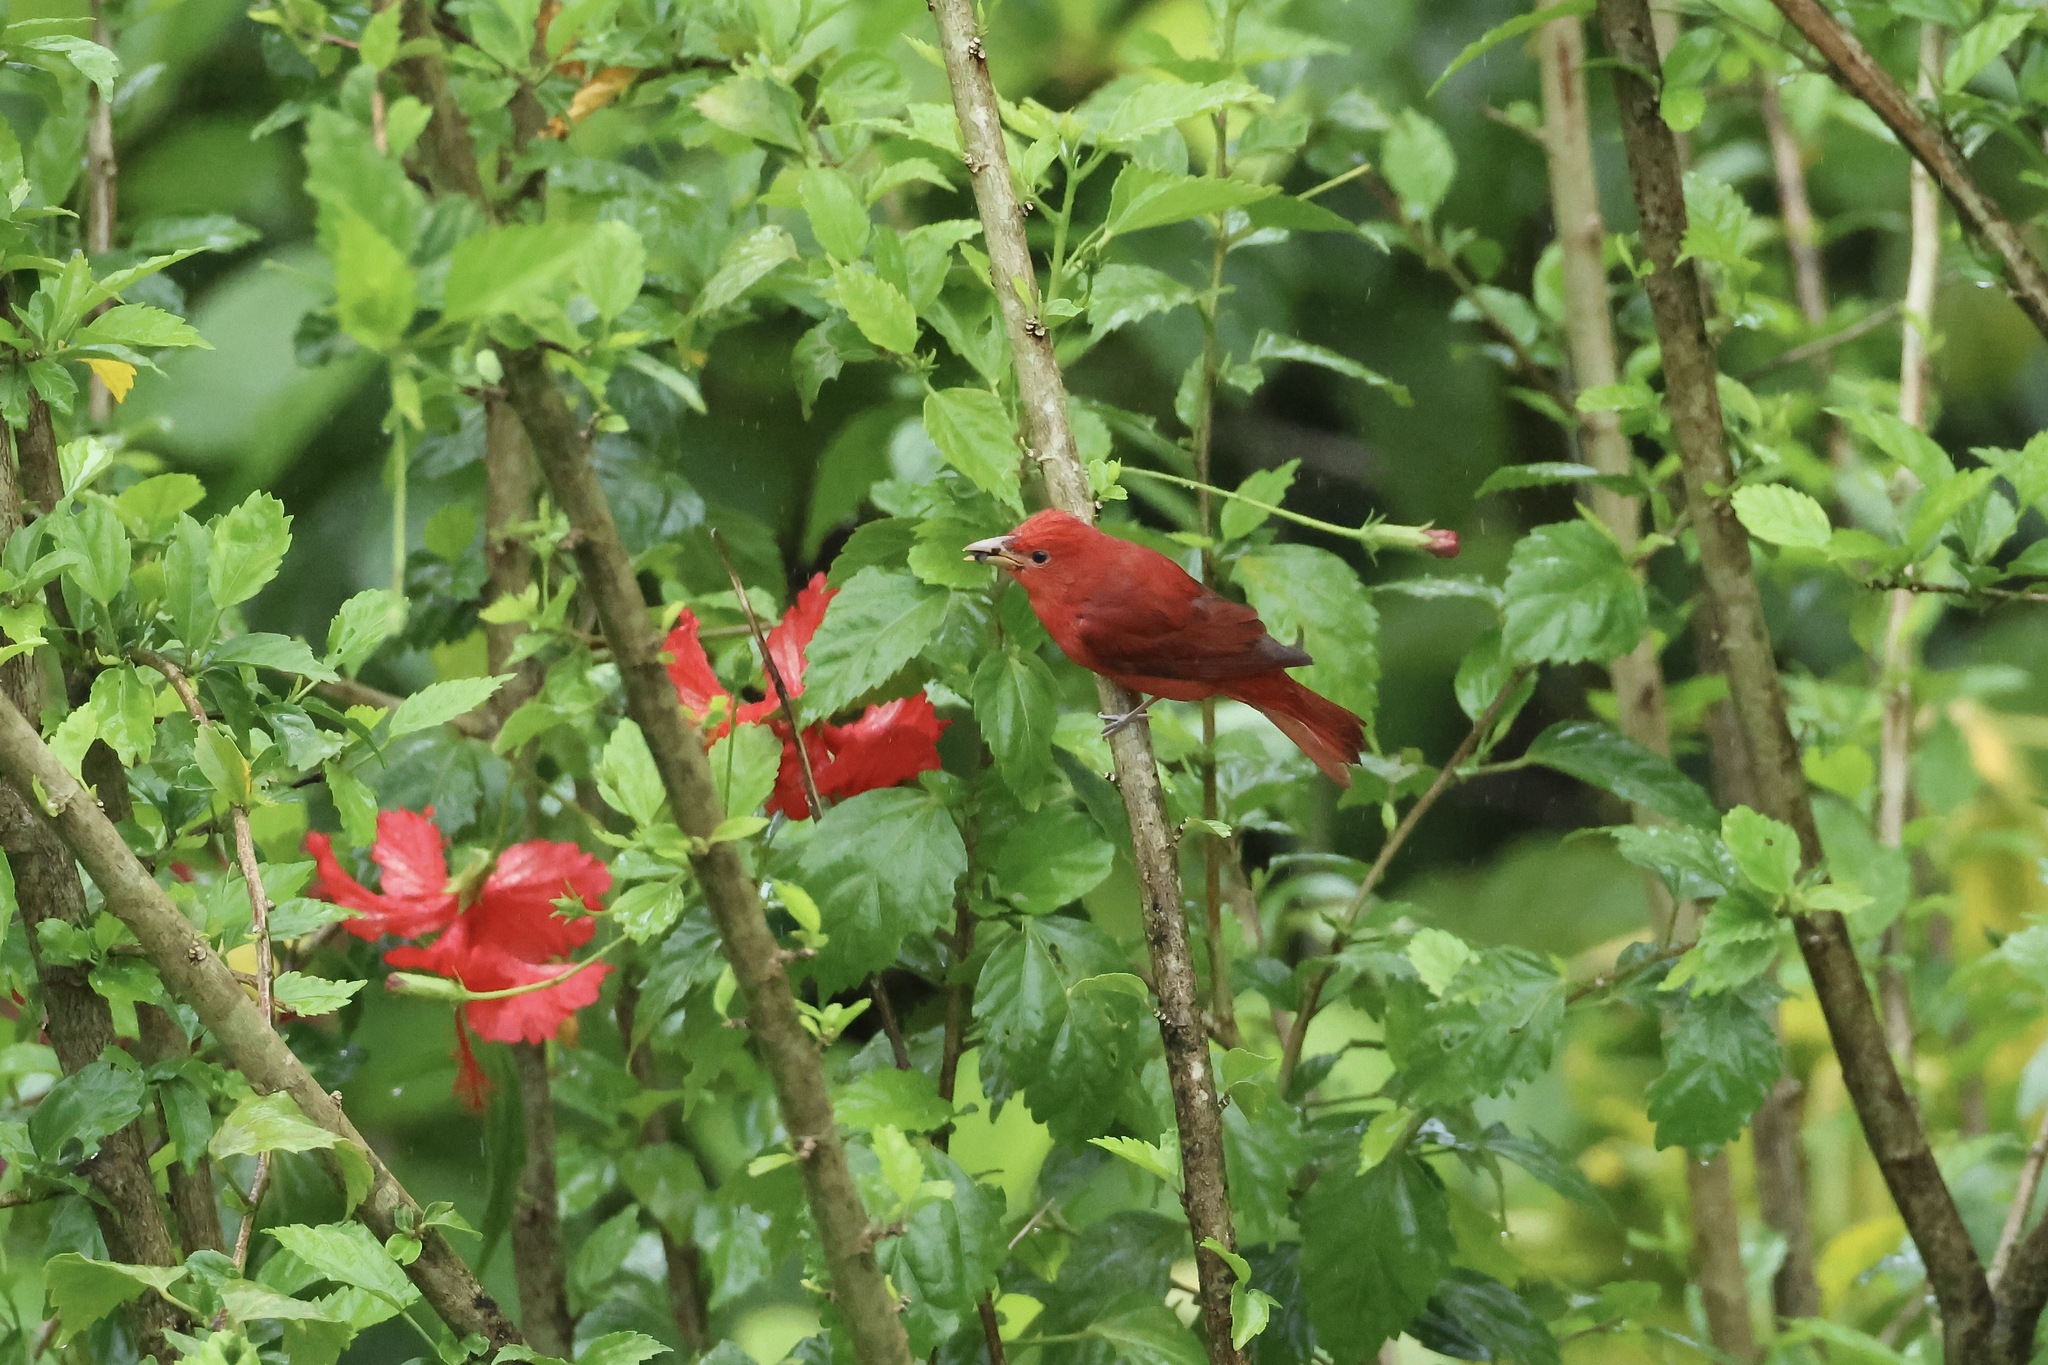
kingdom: Animalia
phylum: Chordata
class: Aves
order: Passeriformes
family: Cardinalidae
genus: Piranga
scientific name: Piranga rubra
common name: Summer tanager
